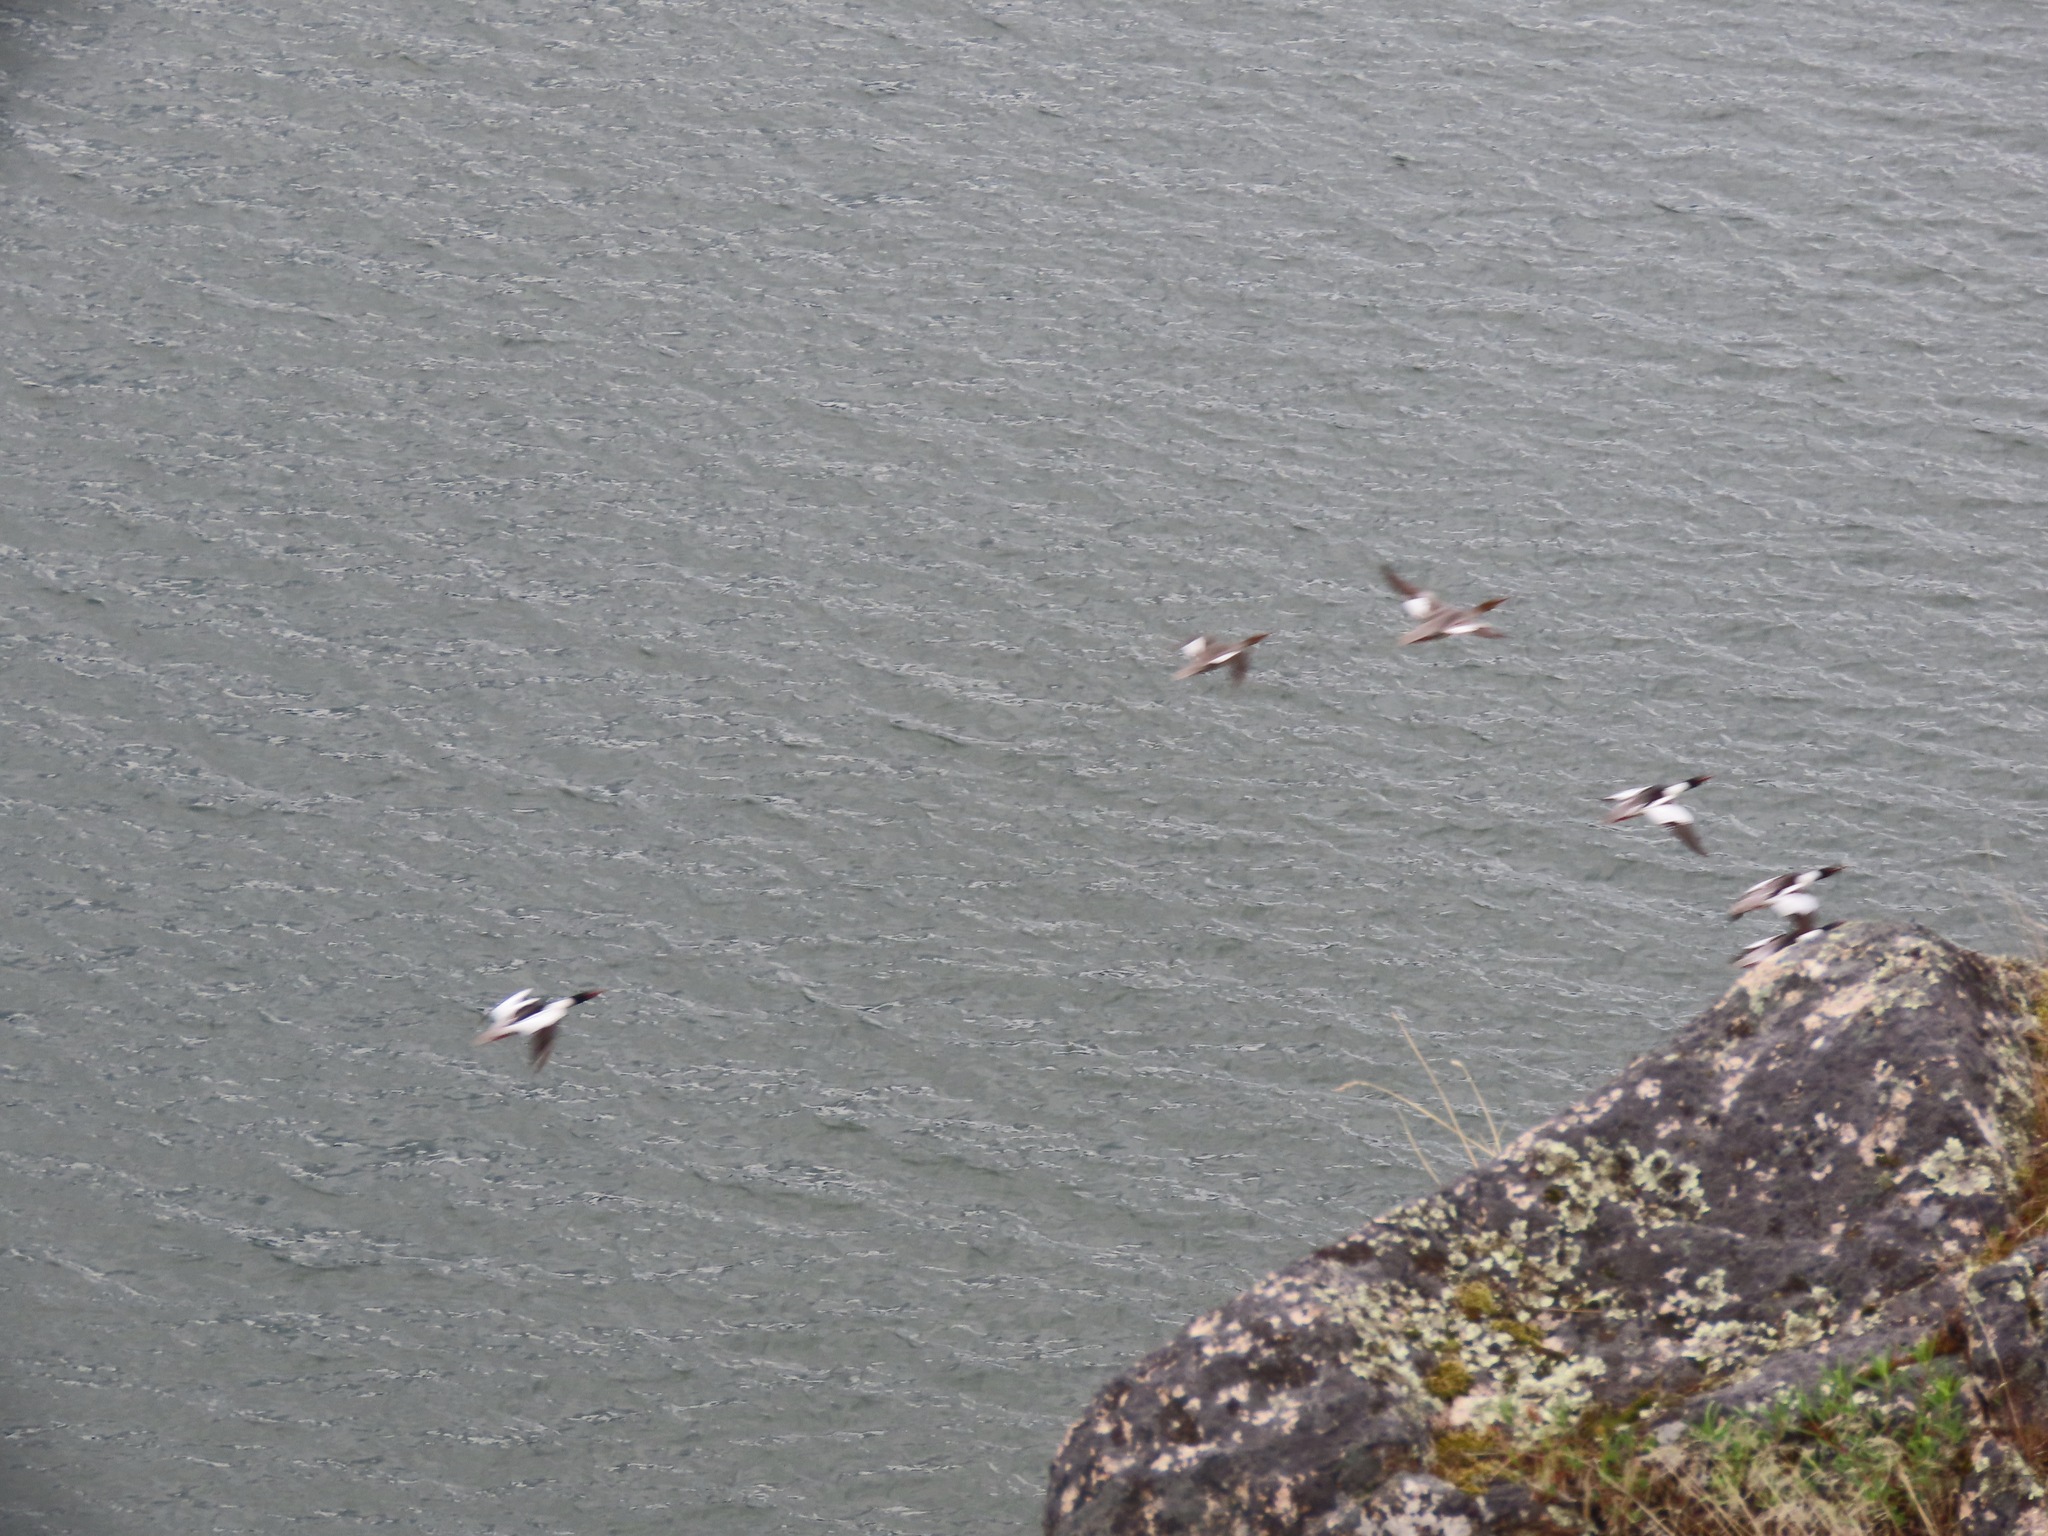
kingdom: Animalia
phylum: Chordata
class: Aves
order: Anseriformes
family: Anatidae
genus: Mergus
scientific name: Mergus merganser
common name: Common merganser
